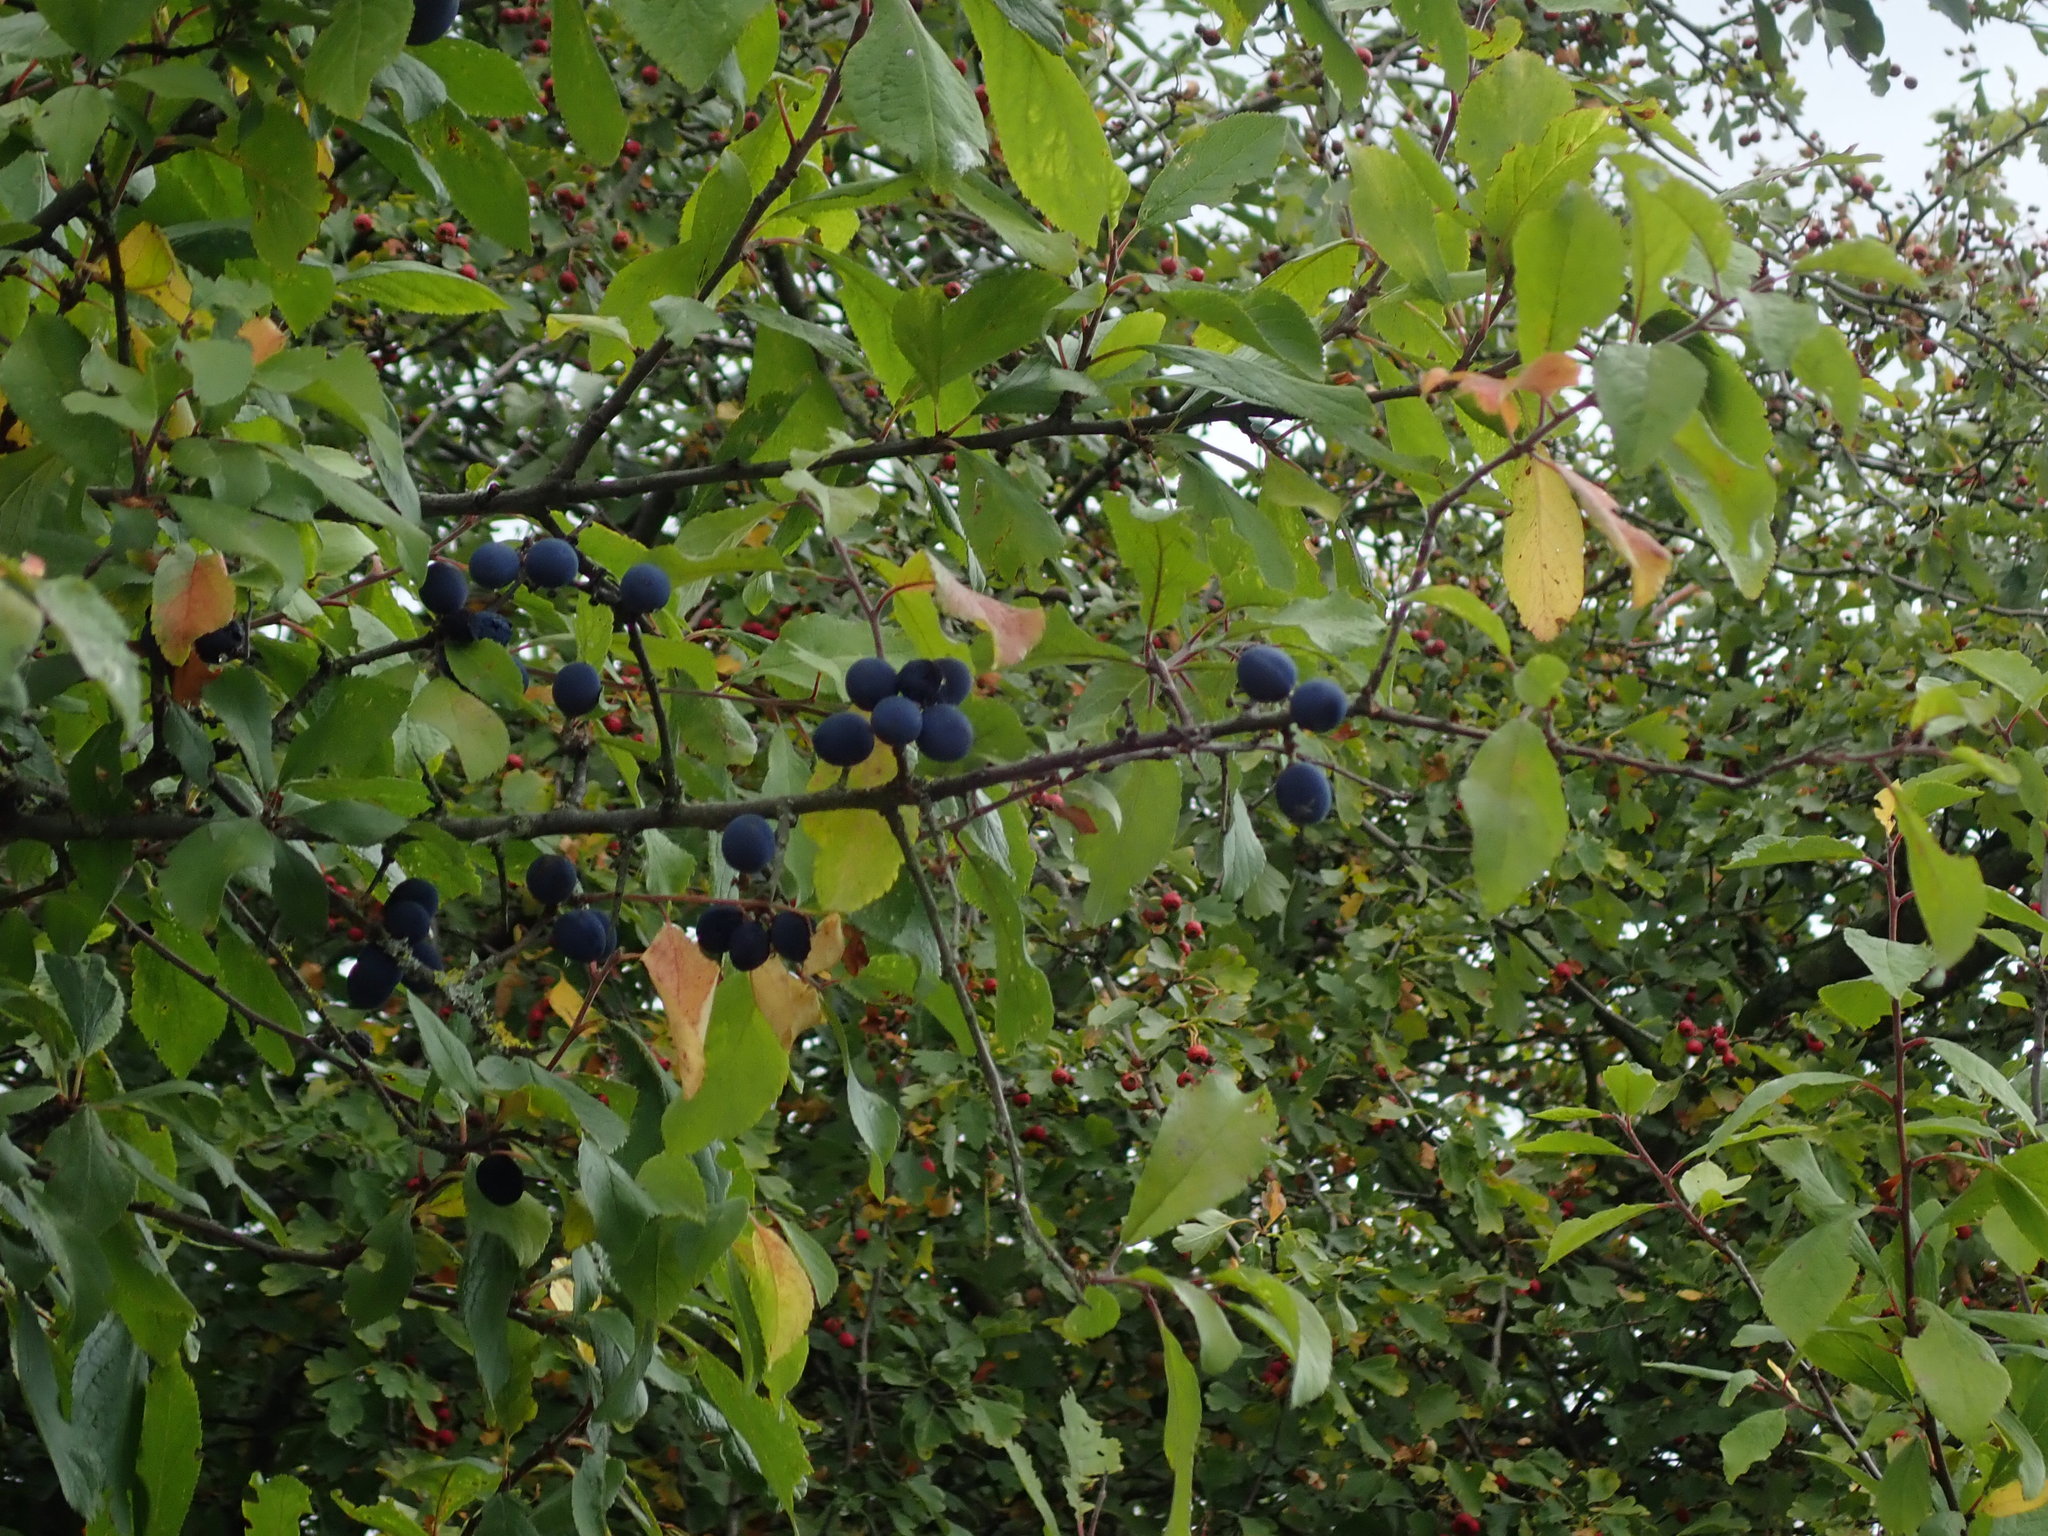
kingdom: Plantae
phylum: Tracheophyta
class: Magnoliopsida
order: Rosales
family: Rosaceae
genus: Prunus
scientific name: Prunus spinosa
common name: Blackthorn
